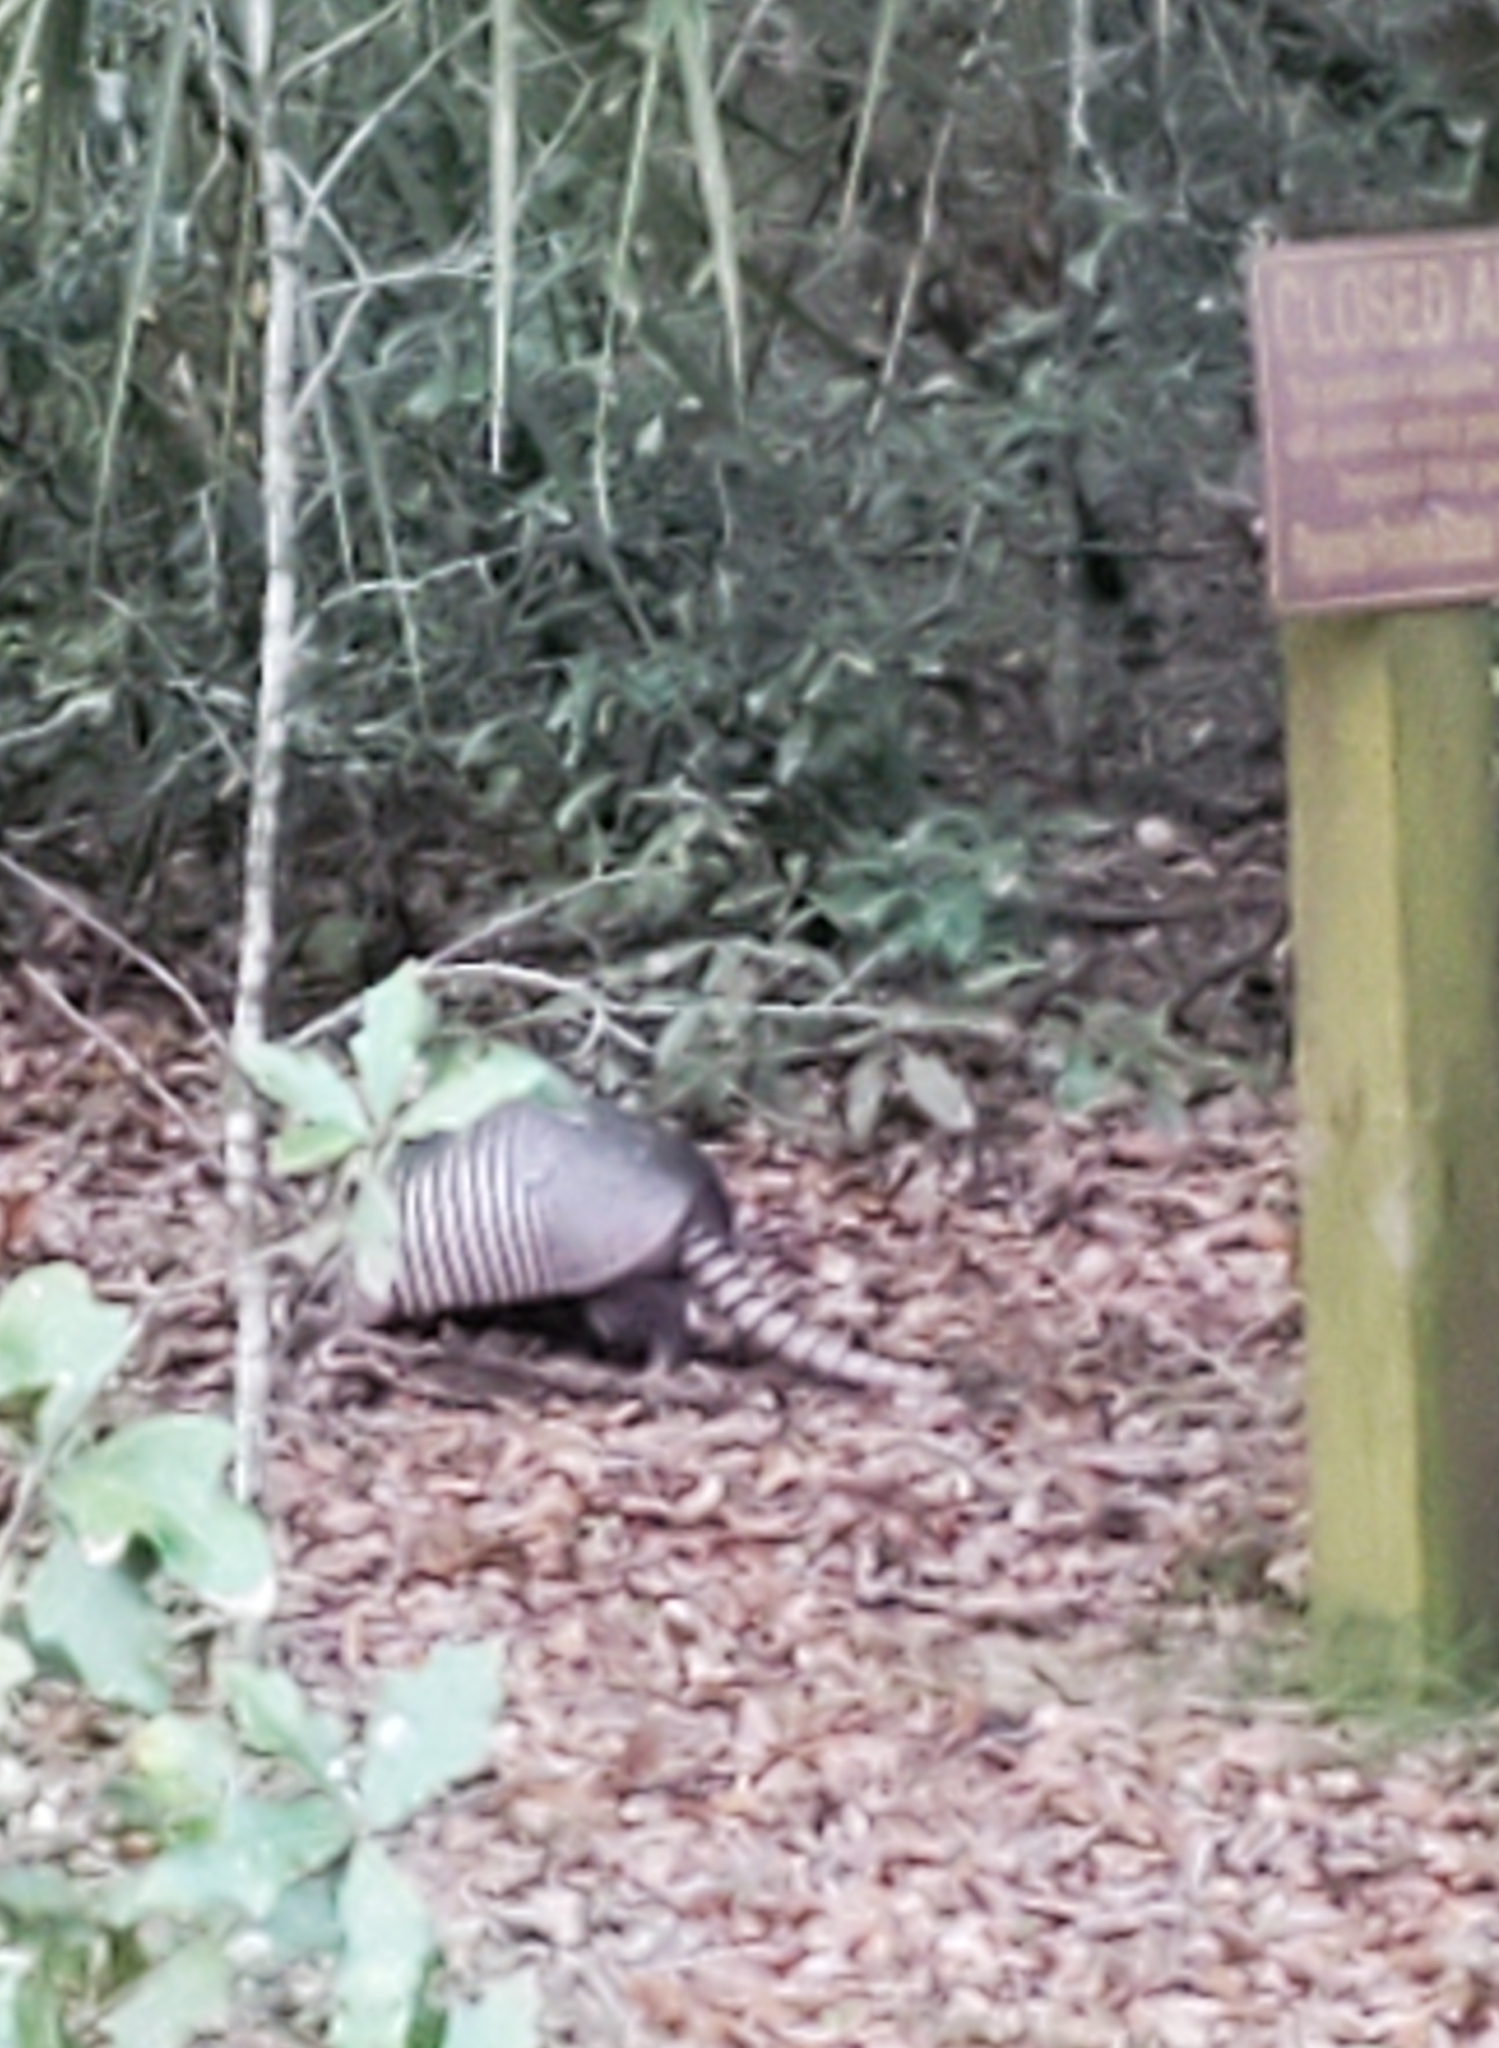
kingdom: Animalia
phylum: Chordata
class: Mammalia
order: Cingulata
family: Dasypodidae
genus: Dasypus
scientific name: Dasypus novemcinctus
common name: Nine-banded armadillo
